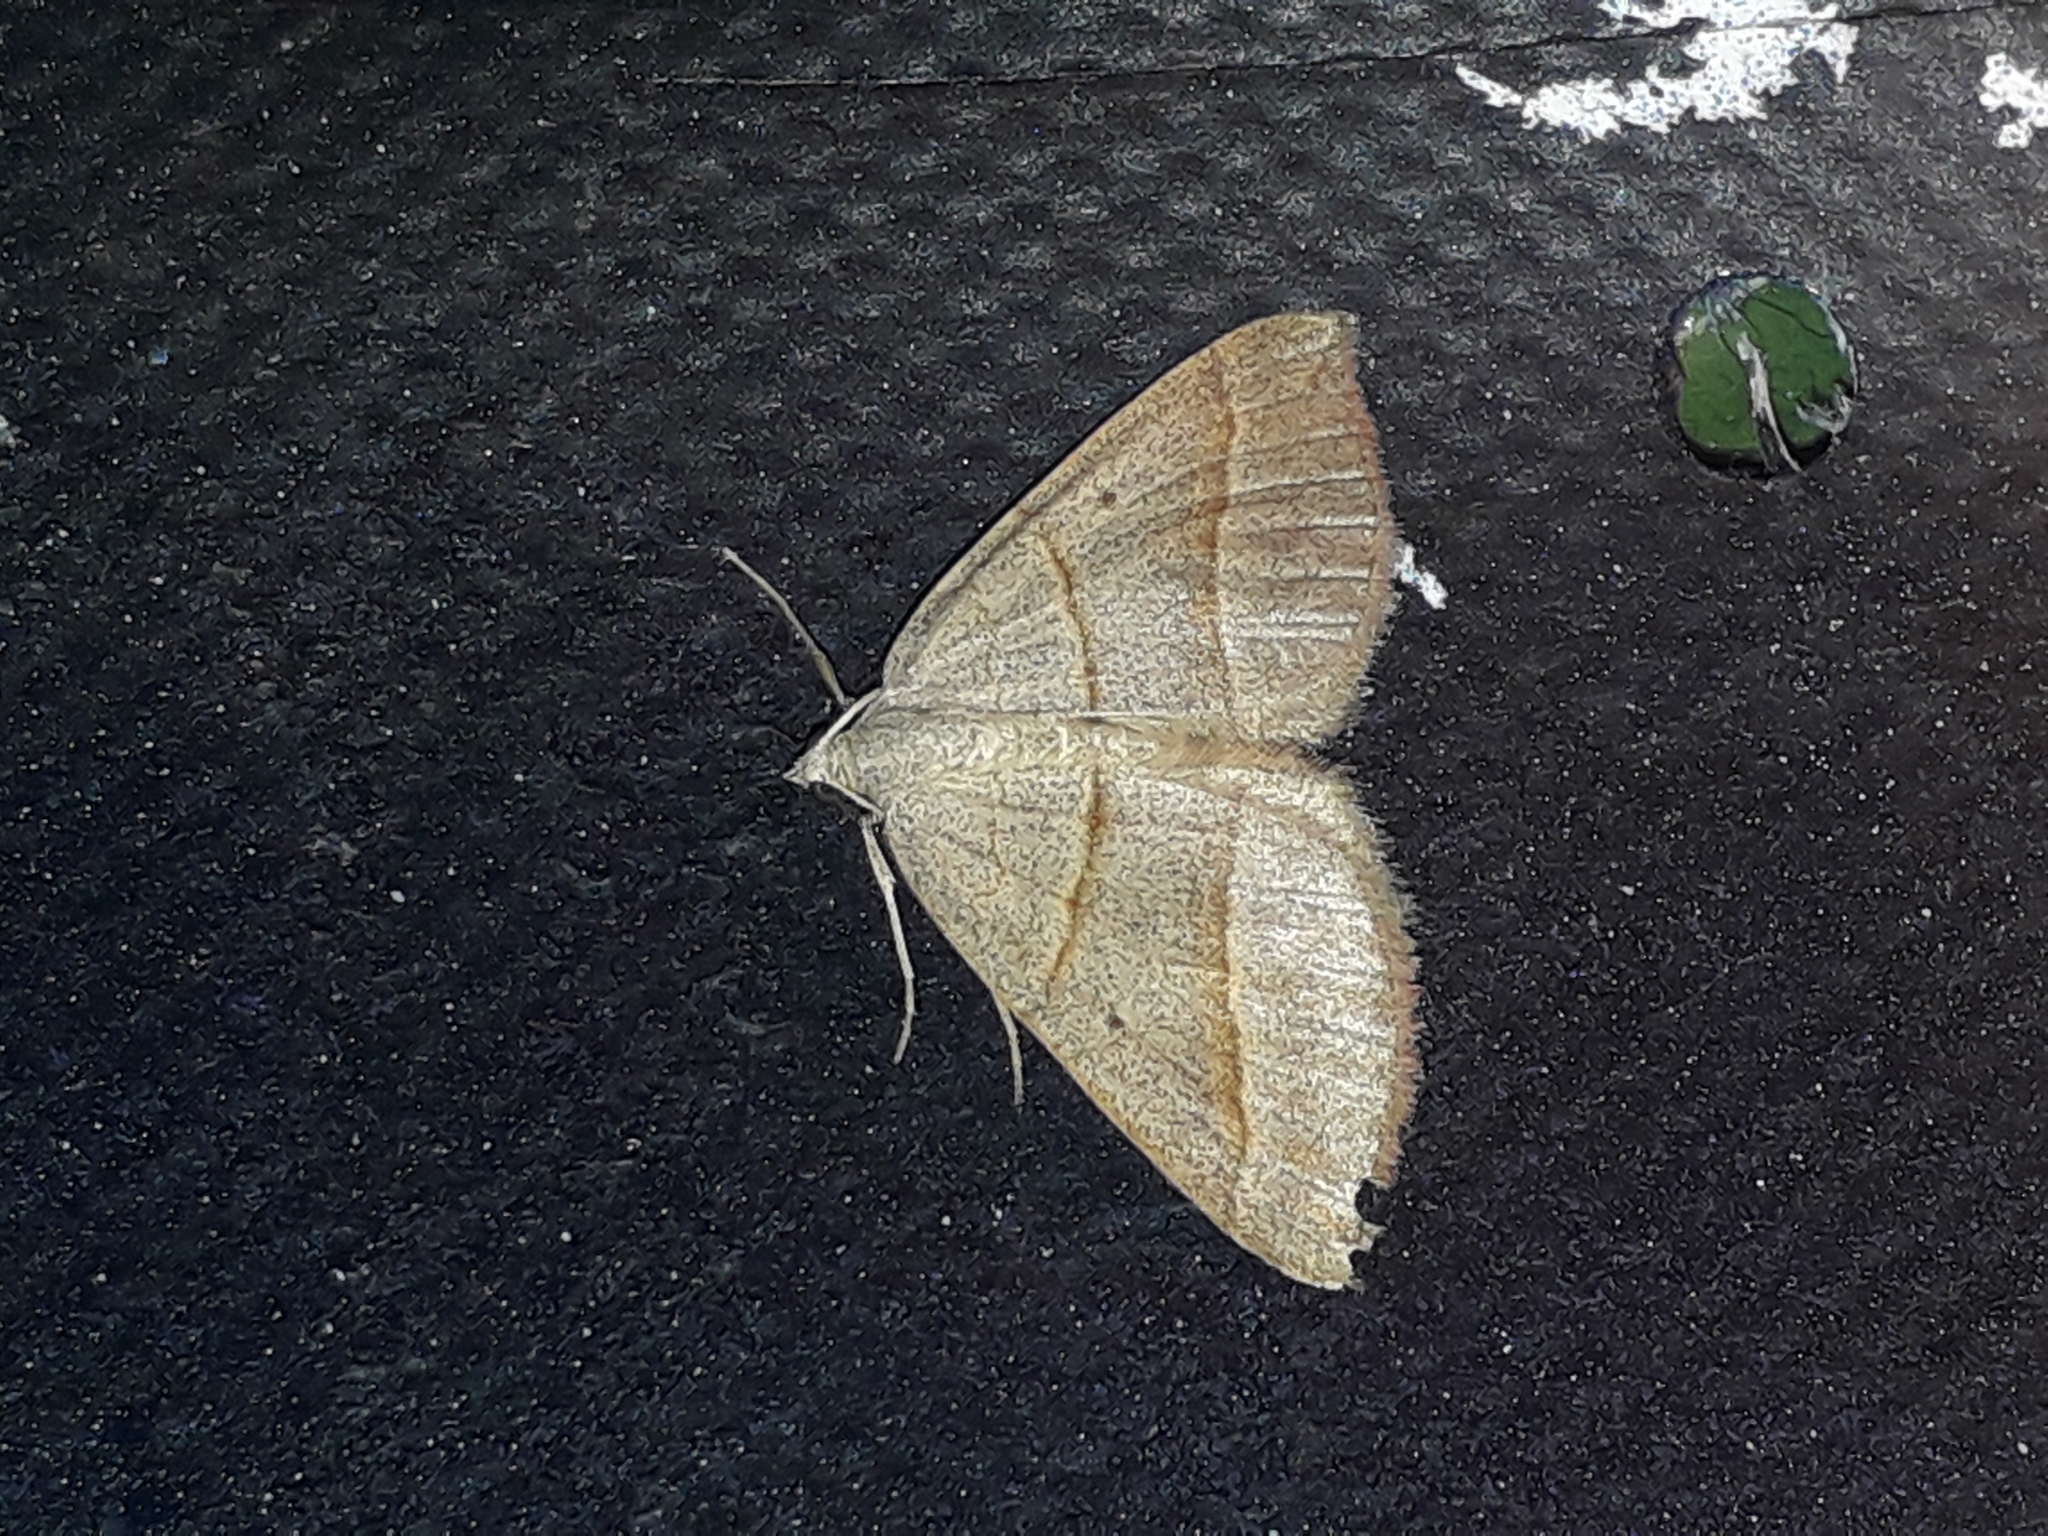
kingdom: Animalia
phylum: Arthropoda
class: Insecta
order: Lepidoptera
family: Geometridae
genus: Scotopteryx
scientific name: Scotopteryx
